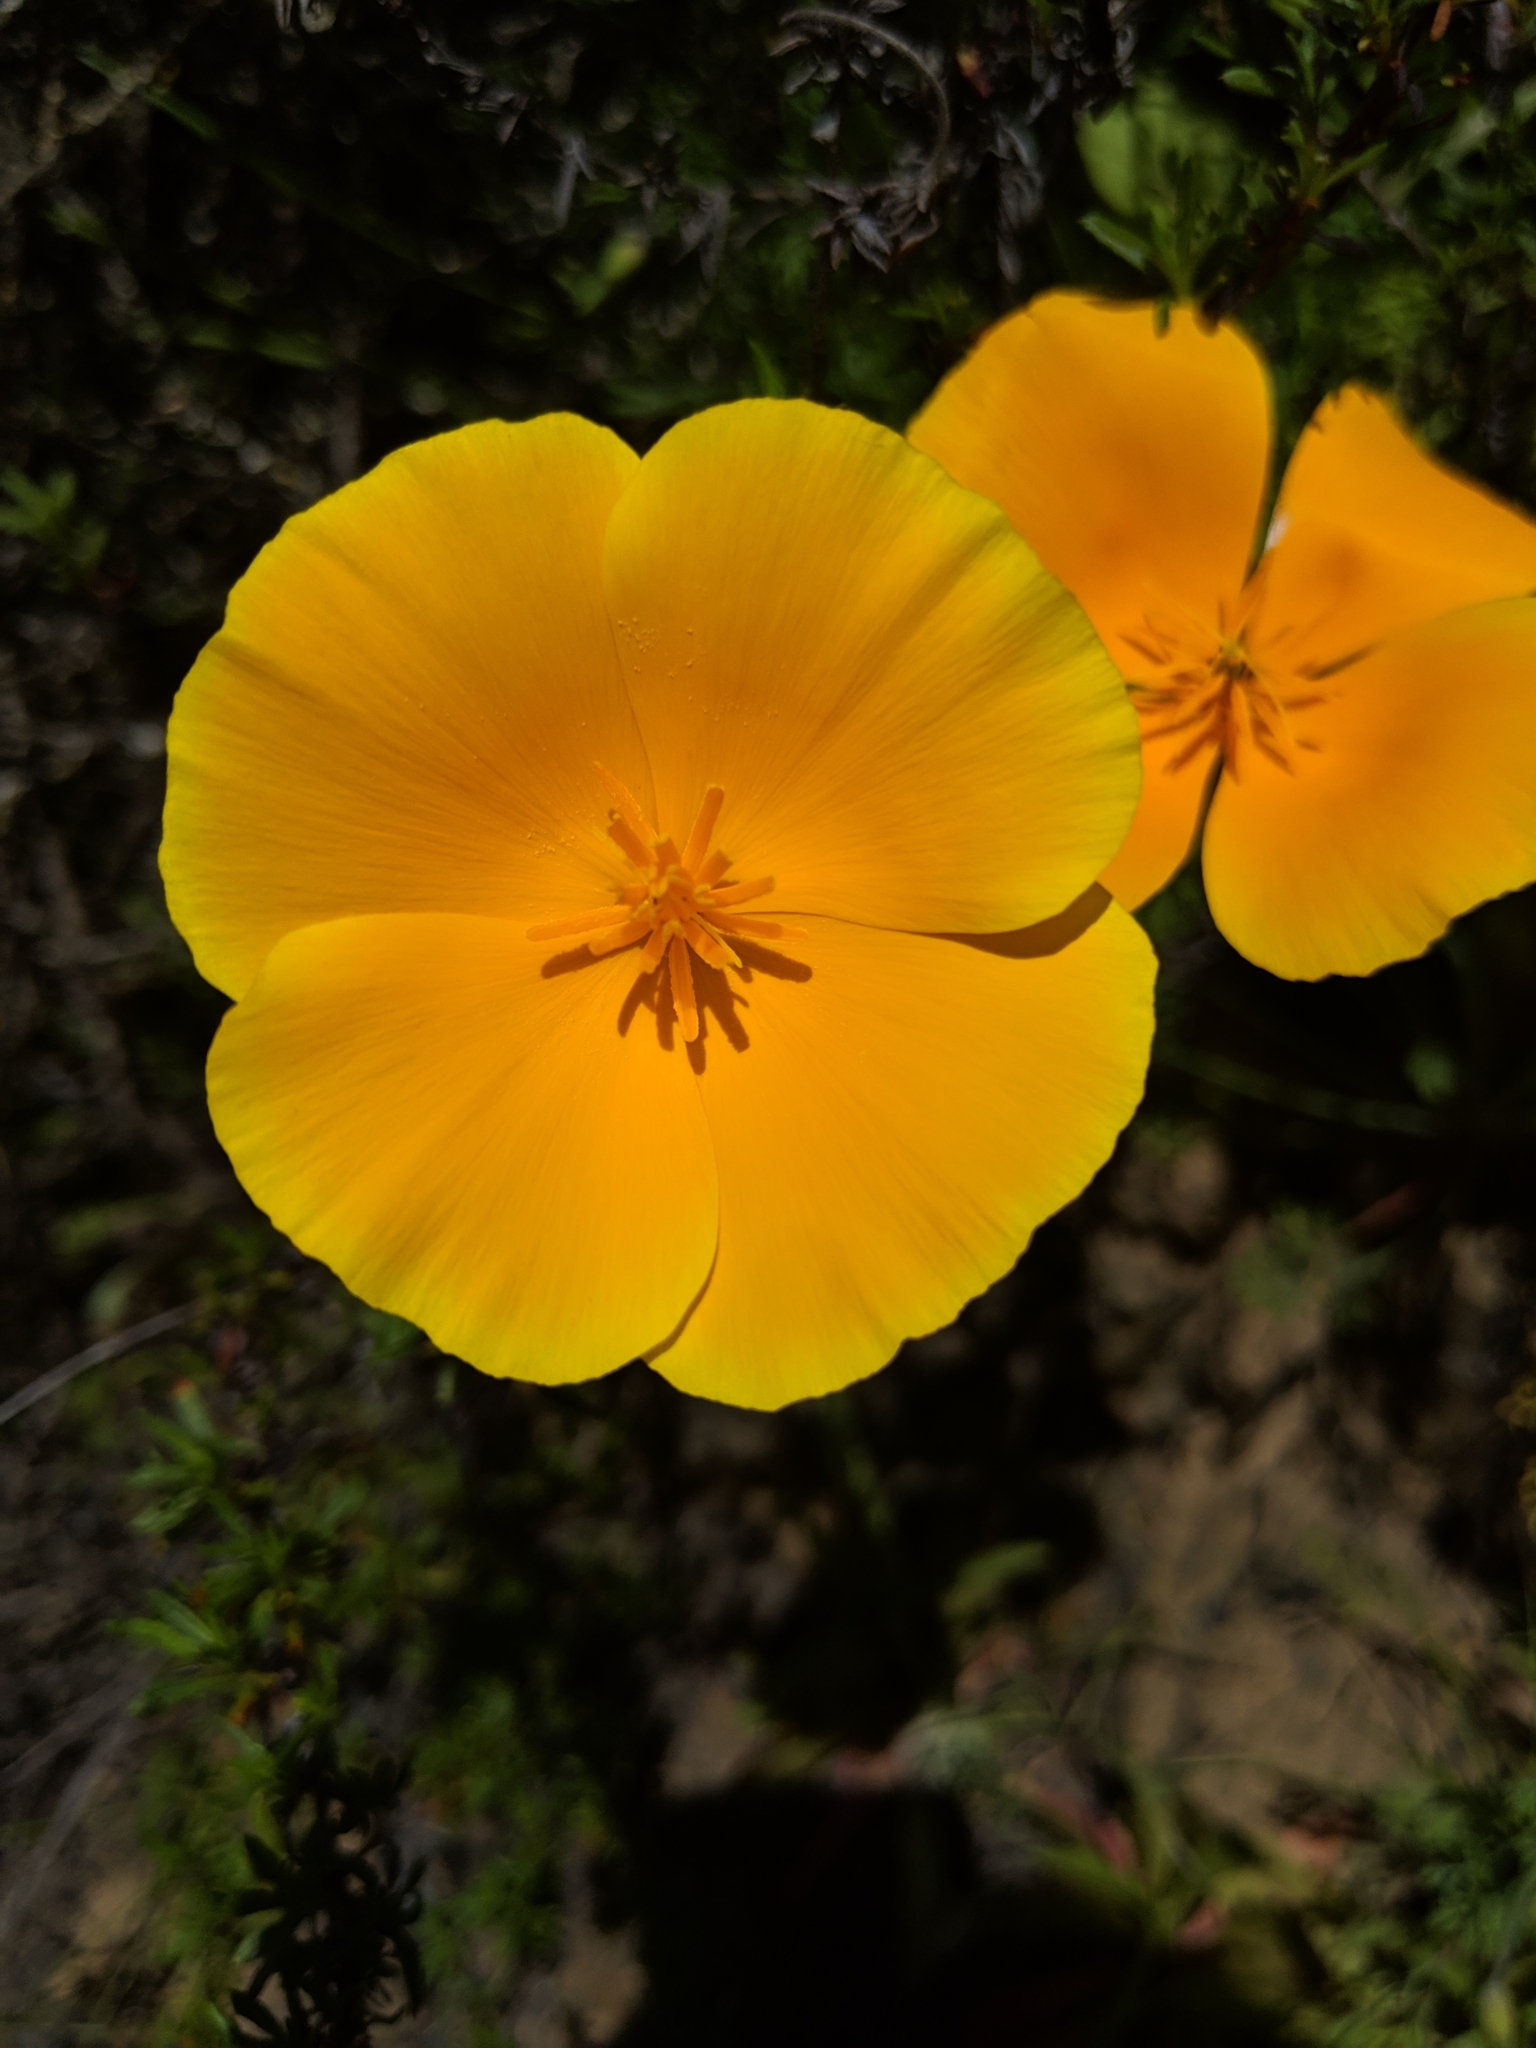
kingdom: Plantae
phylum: Tracheophyta
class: Magnoliopsida
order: Ranunculales
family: Papaveraceae
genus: Eschscholzia
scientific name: Eschscholzia caespitosa
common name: Tufted california-poppy
